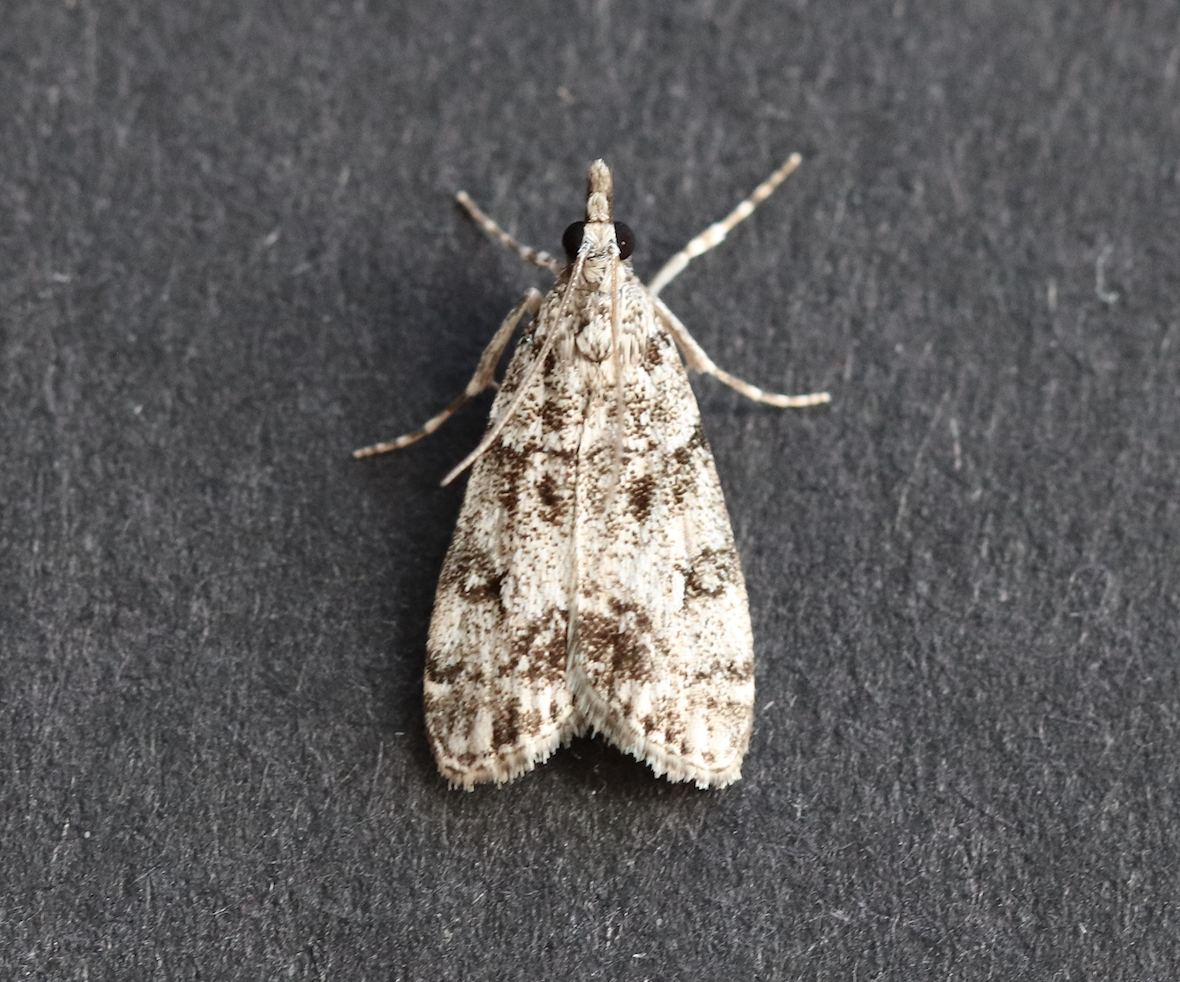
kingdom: Animalia
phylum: Arthropoda
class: Insecta
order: Lepidoptera
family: Crambidae
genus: Eudonia
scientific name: Eudonia lacustrata
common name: Little grey
